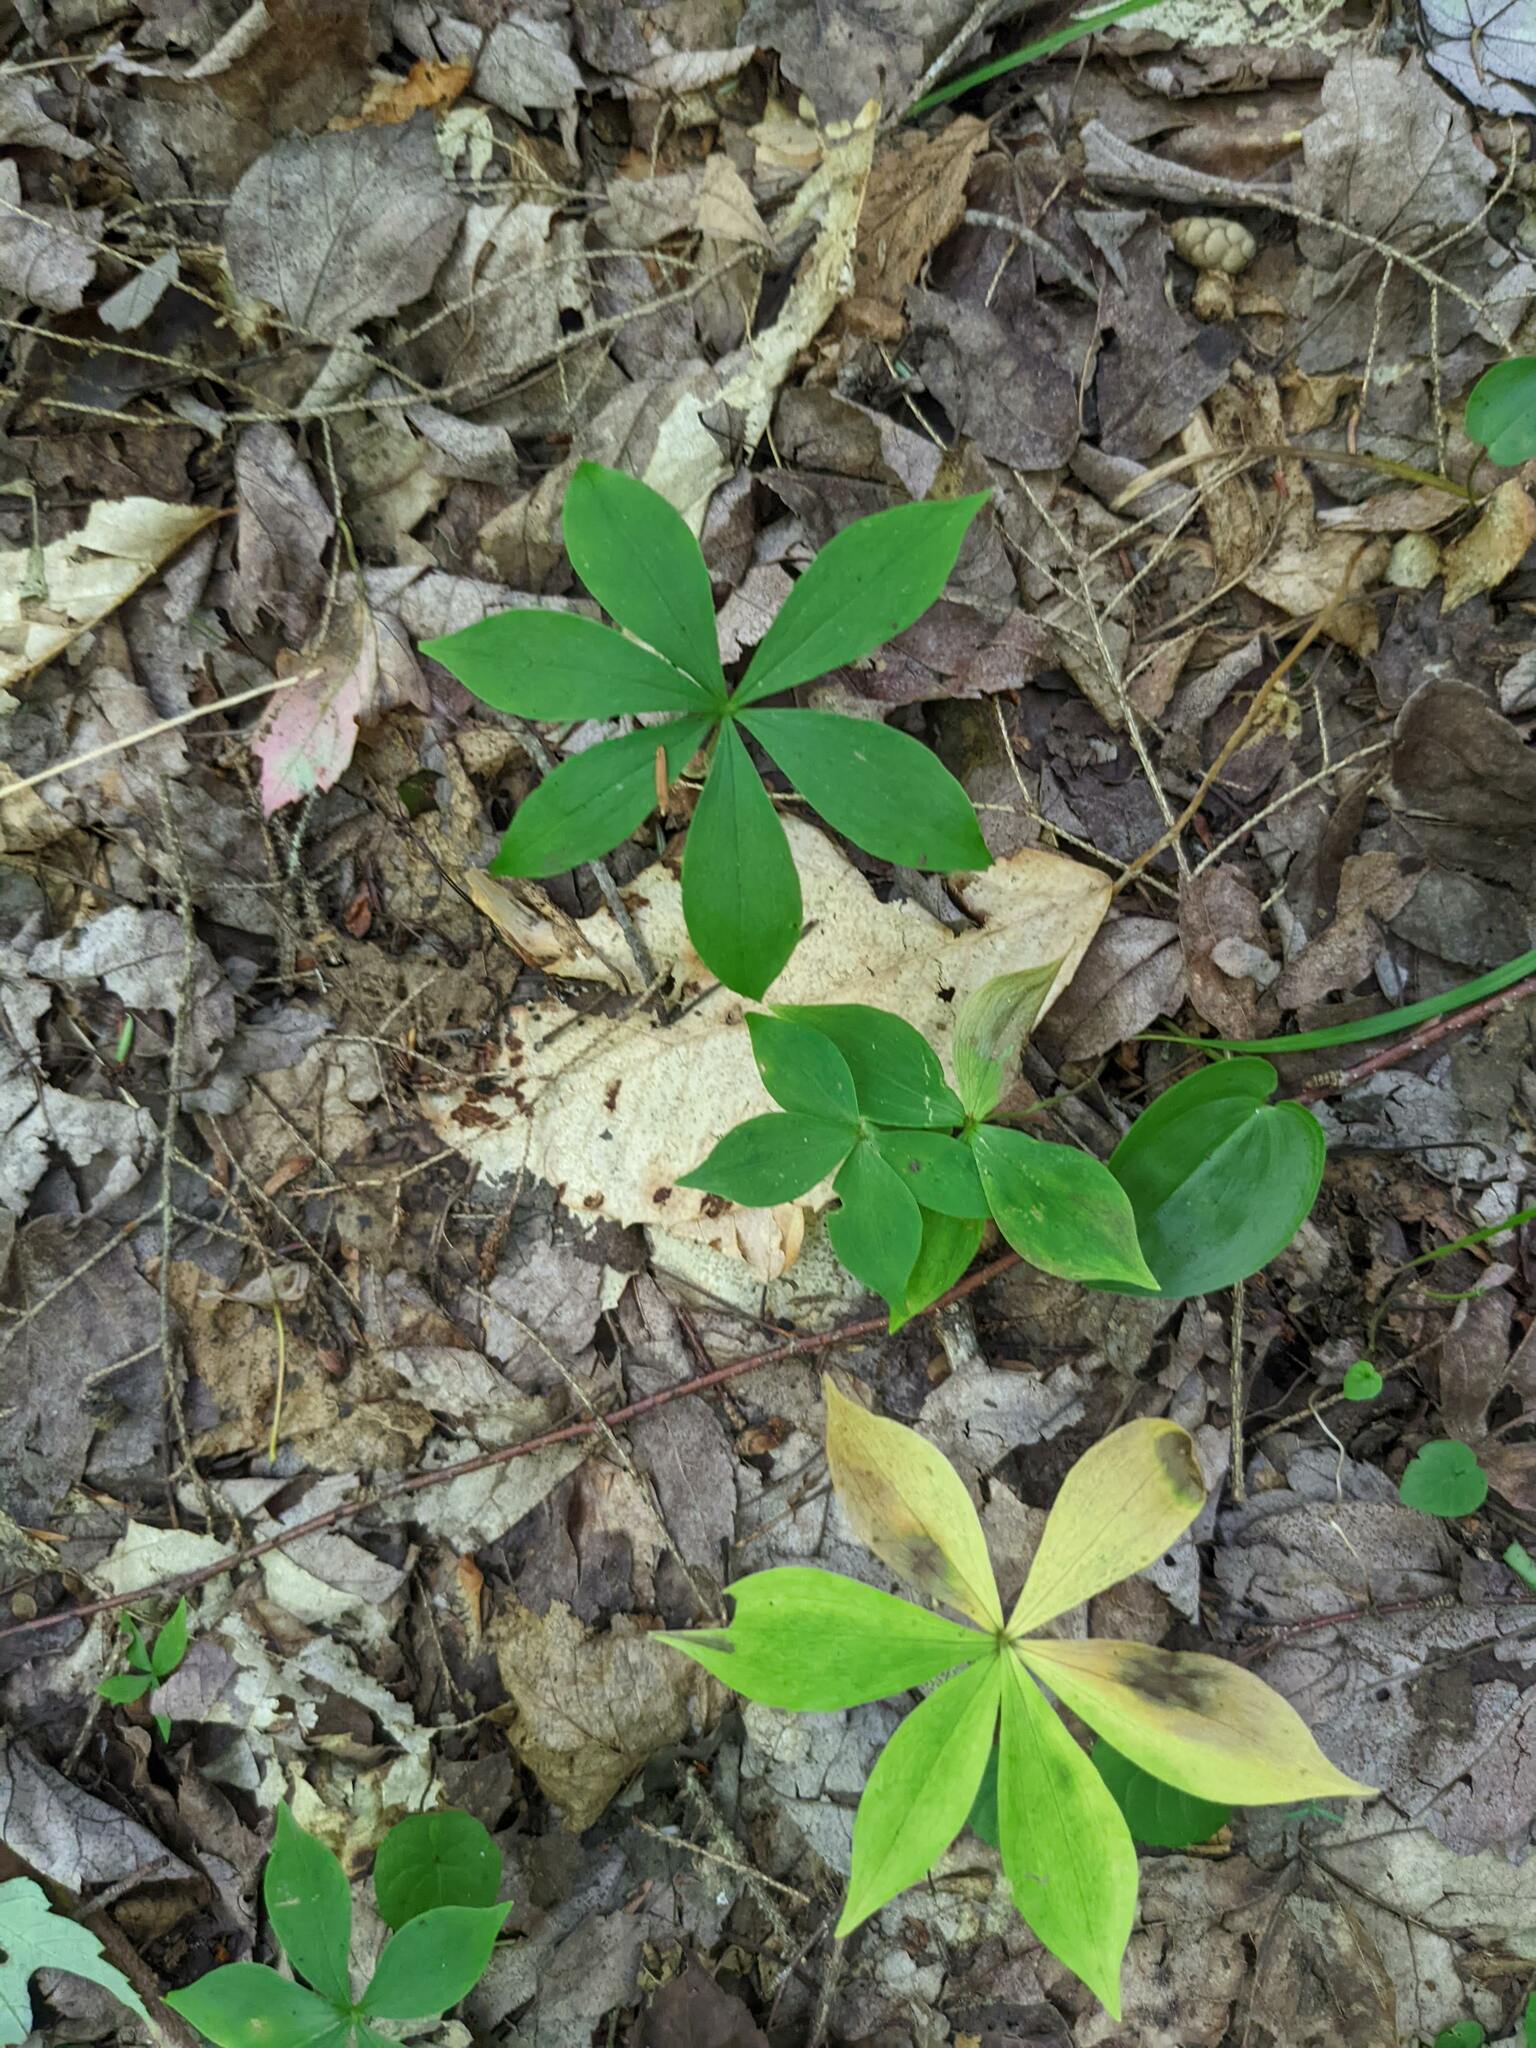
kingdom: Plantae
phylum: Tracheophyta
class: Liliopsida
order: Liliales
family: Liliaceae
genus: Medeola
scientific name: Medeola virginiana
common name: Indian cucumber-root
